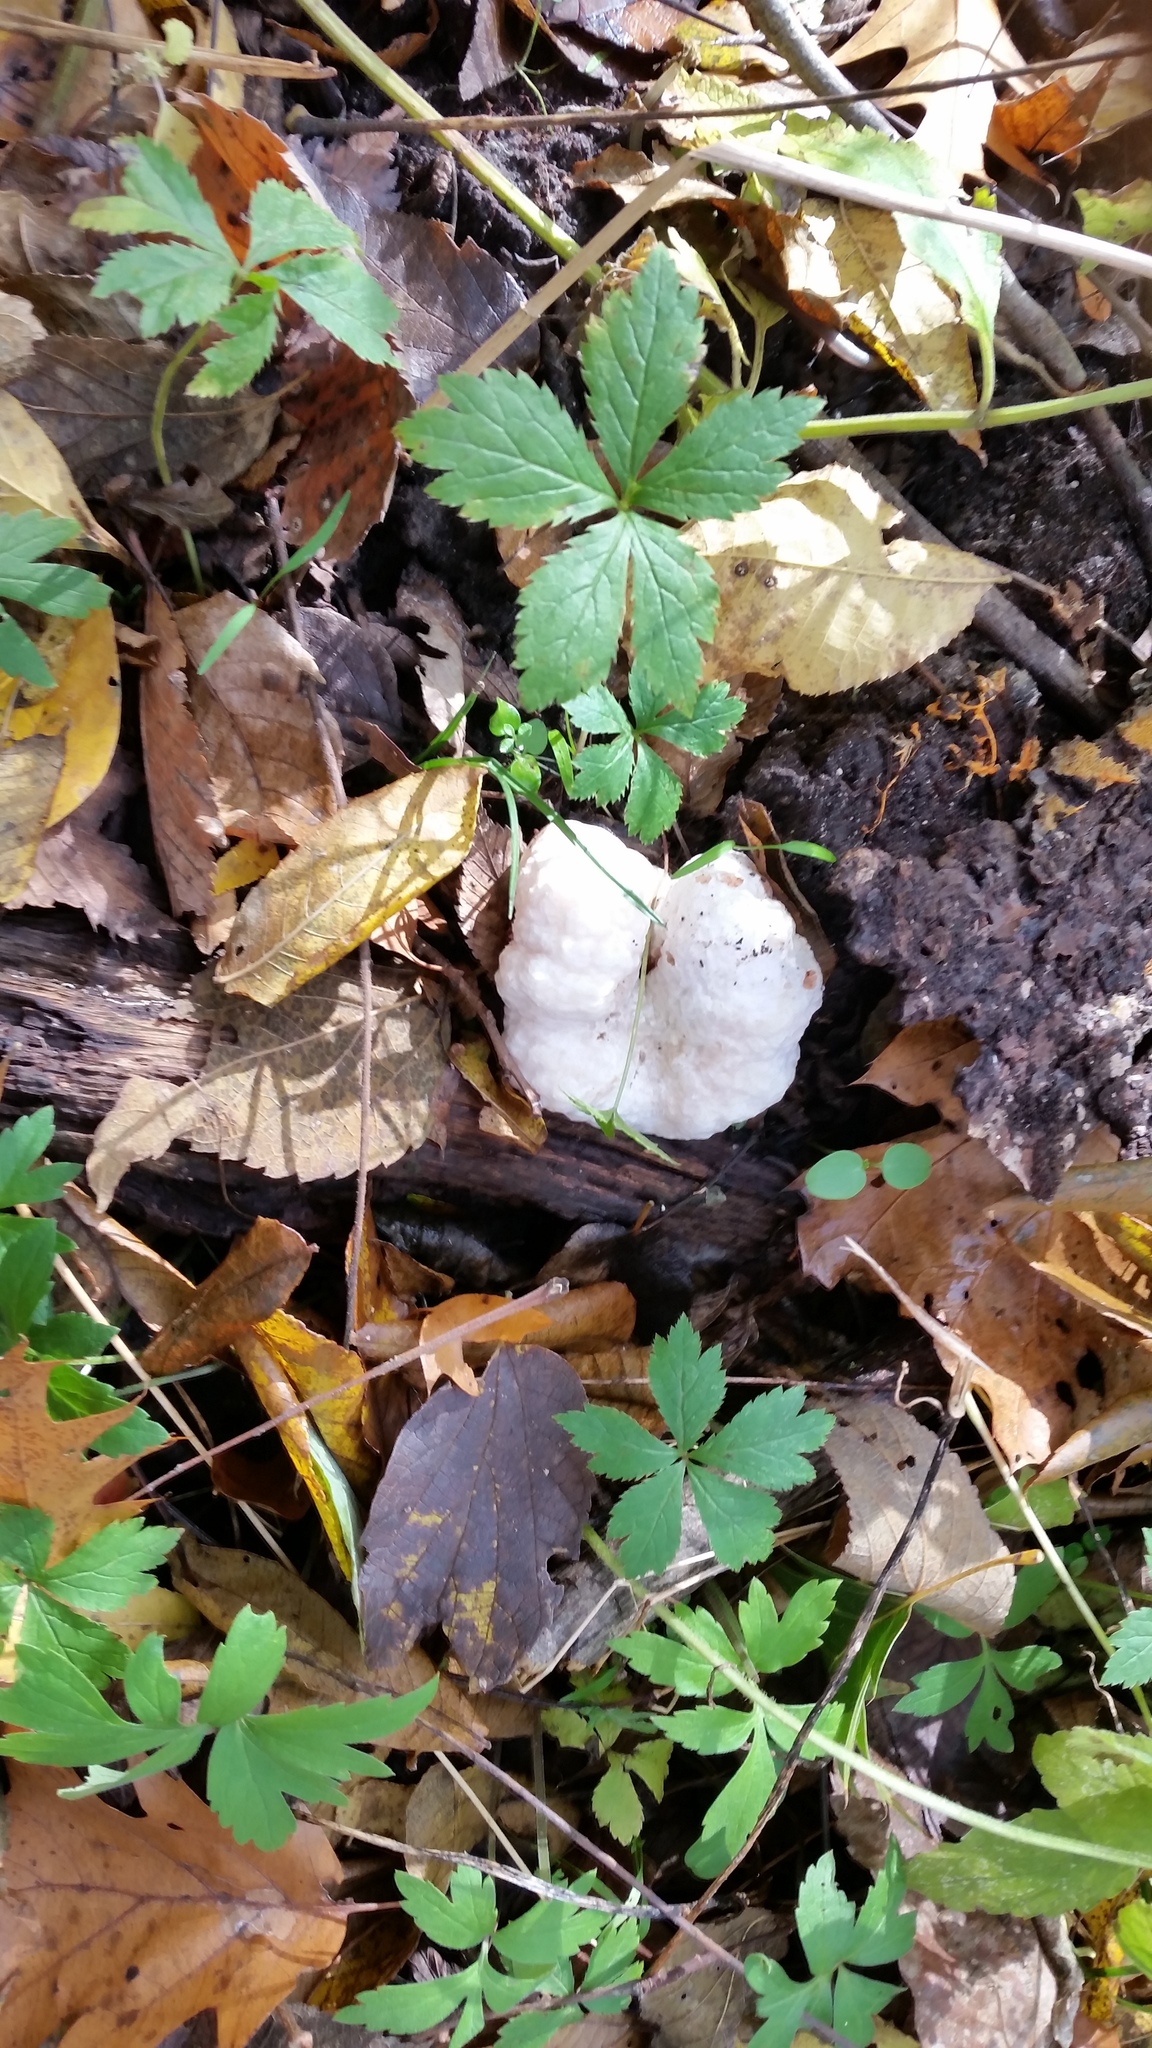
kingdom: Fungi
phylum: Basidiomycota
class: Agaricomycetes
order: Agaricales
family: Entolomataceae
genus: Entoloma
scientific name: Entoloma abortivum
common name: Aborted entoloma
